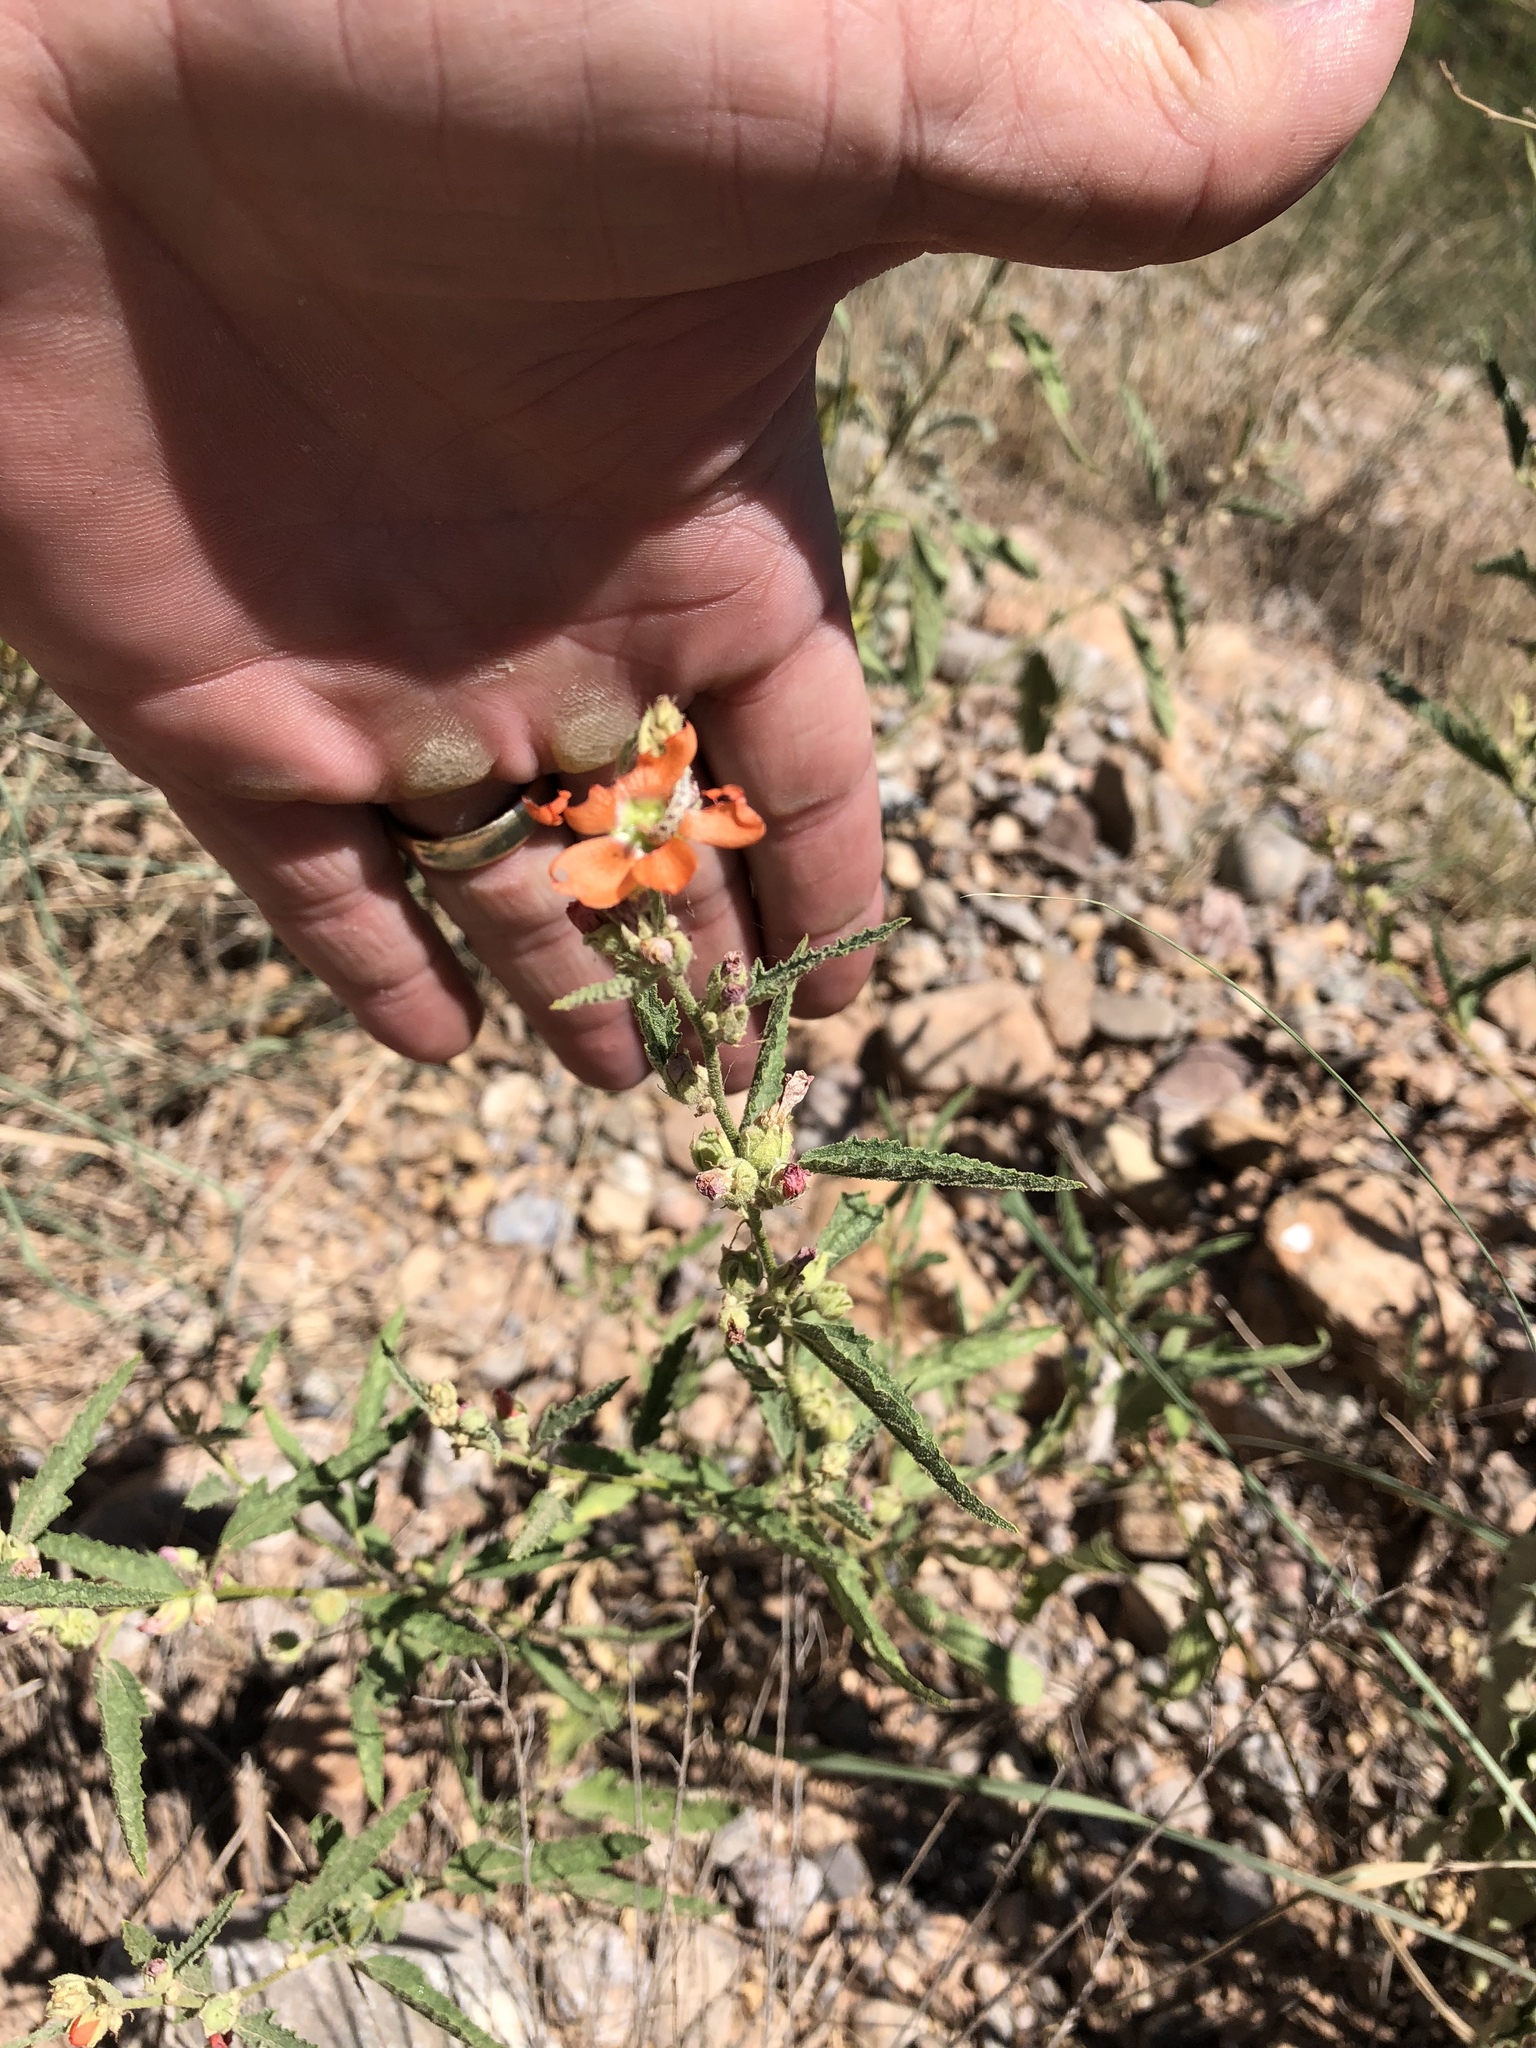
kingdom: Plantae
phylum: Tracheophyta
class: Magnoliopsida
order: Malvales
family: Malvaceae
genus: Sphaeralcea
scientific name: Sphaeralcea angustifolia
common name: Copper globe-mallow
